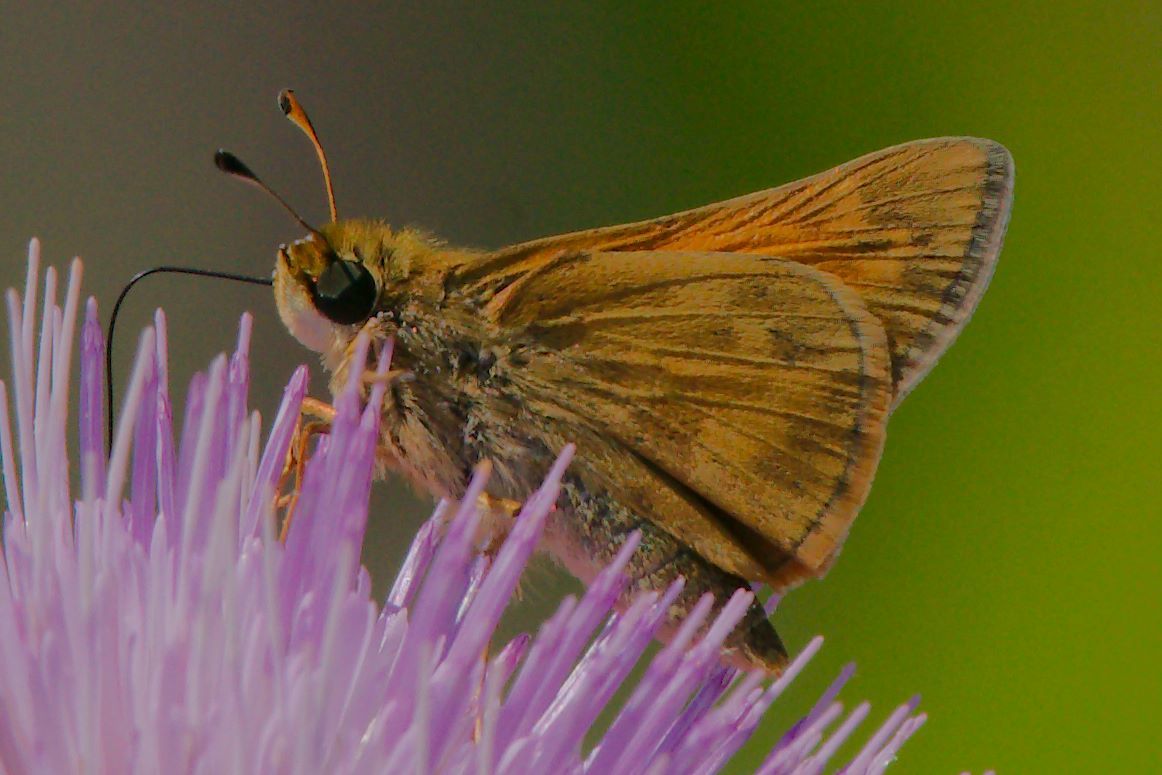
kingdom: Animalia
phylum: Arthropoda
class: Insecta
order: Lepidoptera
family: Hesperiidae
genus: Atalopedes
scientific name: Atalopedes
